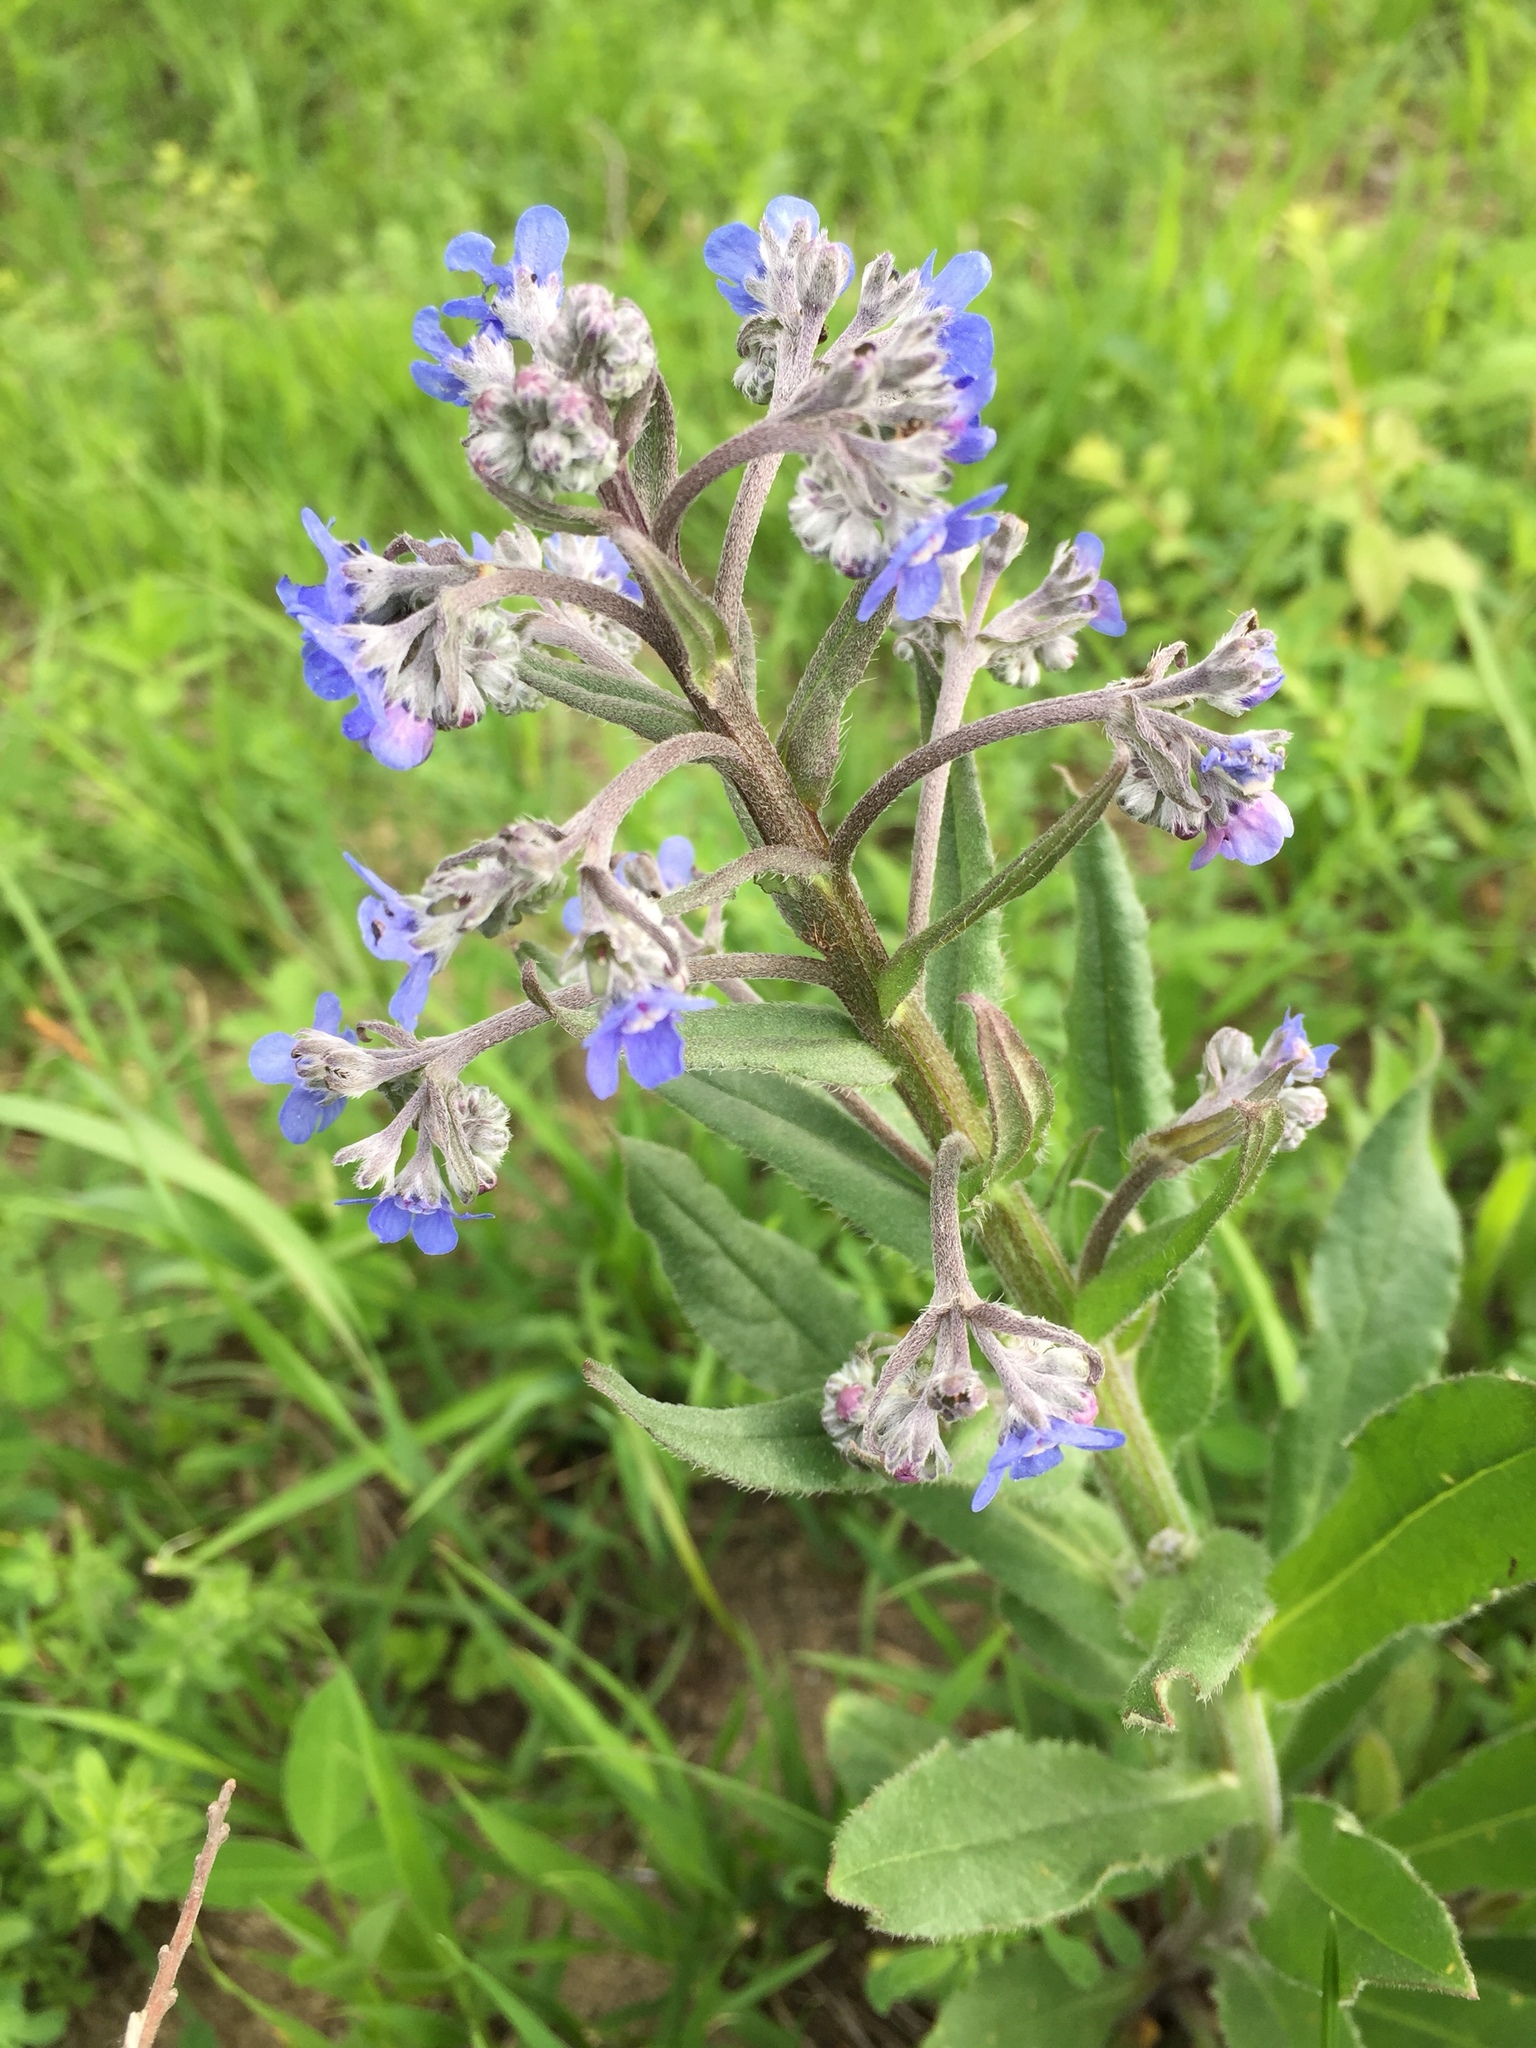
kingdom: Plantae
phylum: Tracheophyta
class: Magnoliopsida
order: Boraginales
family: Boraginaceae
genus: Cynoglottis
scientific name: Cynoglottis barrelieri
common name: False alkanet
